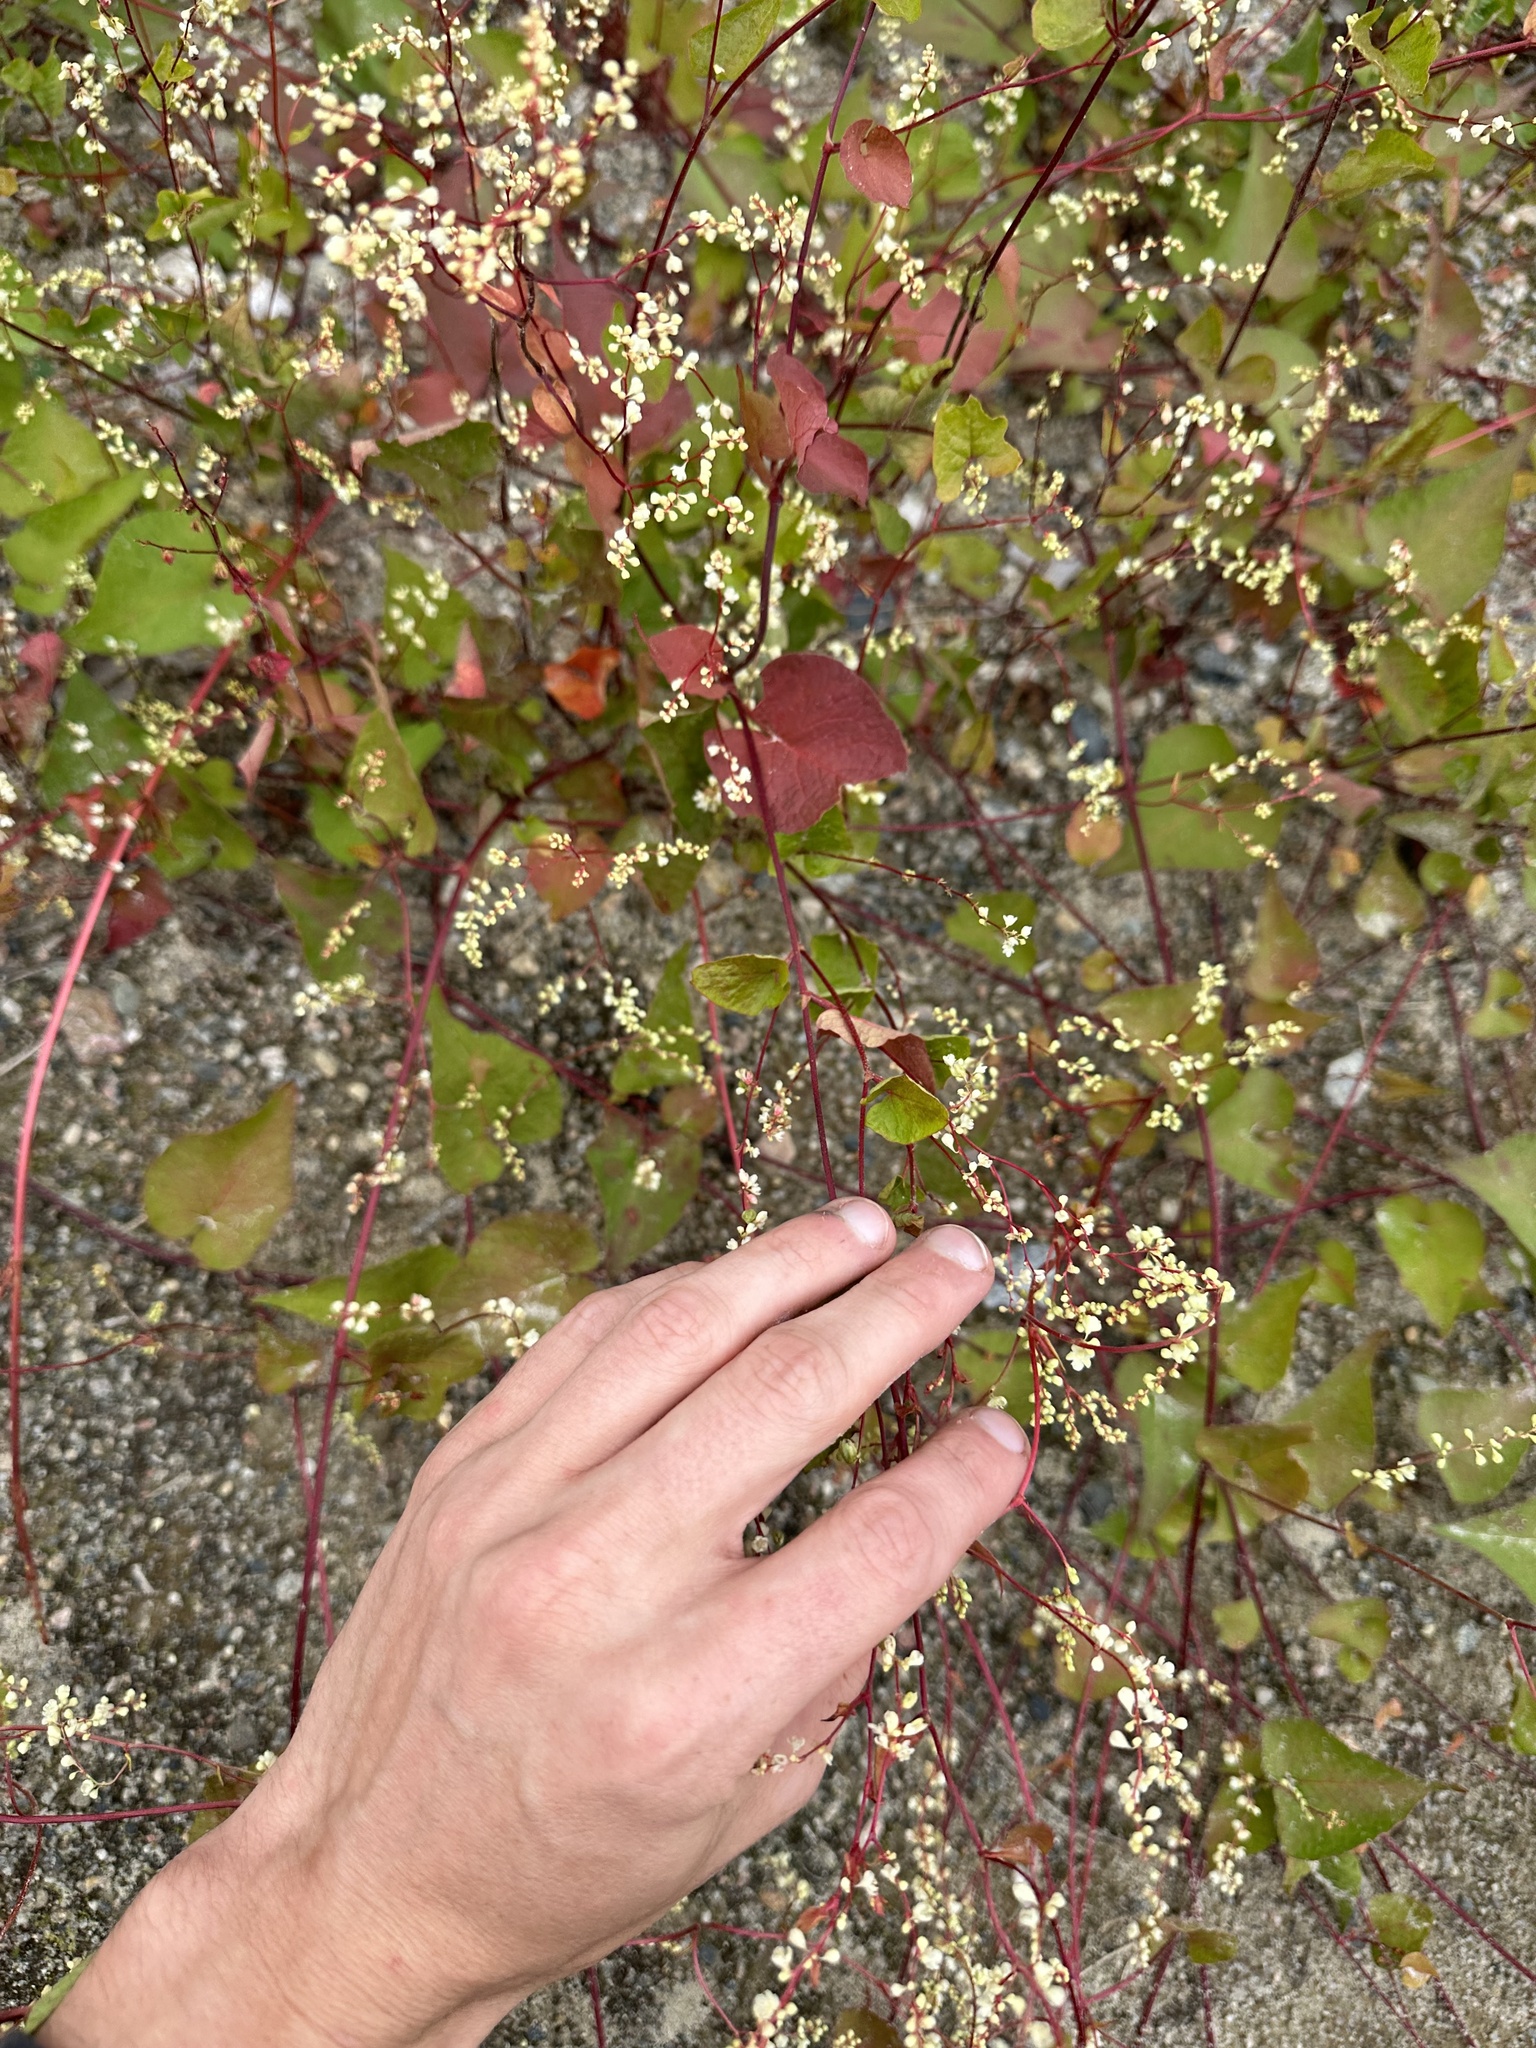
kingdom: Plantae
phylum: Tracheophyta
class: Magnoliopsida
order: Caryophyllales
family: Polygonaceae
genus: Parogonum
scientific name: Parogonum ciliinode
